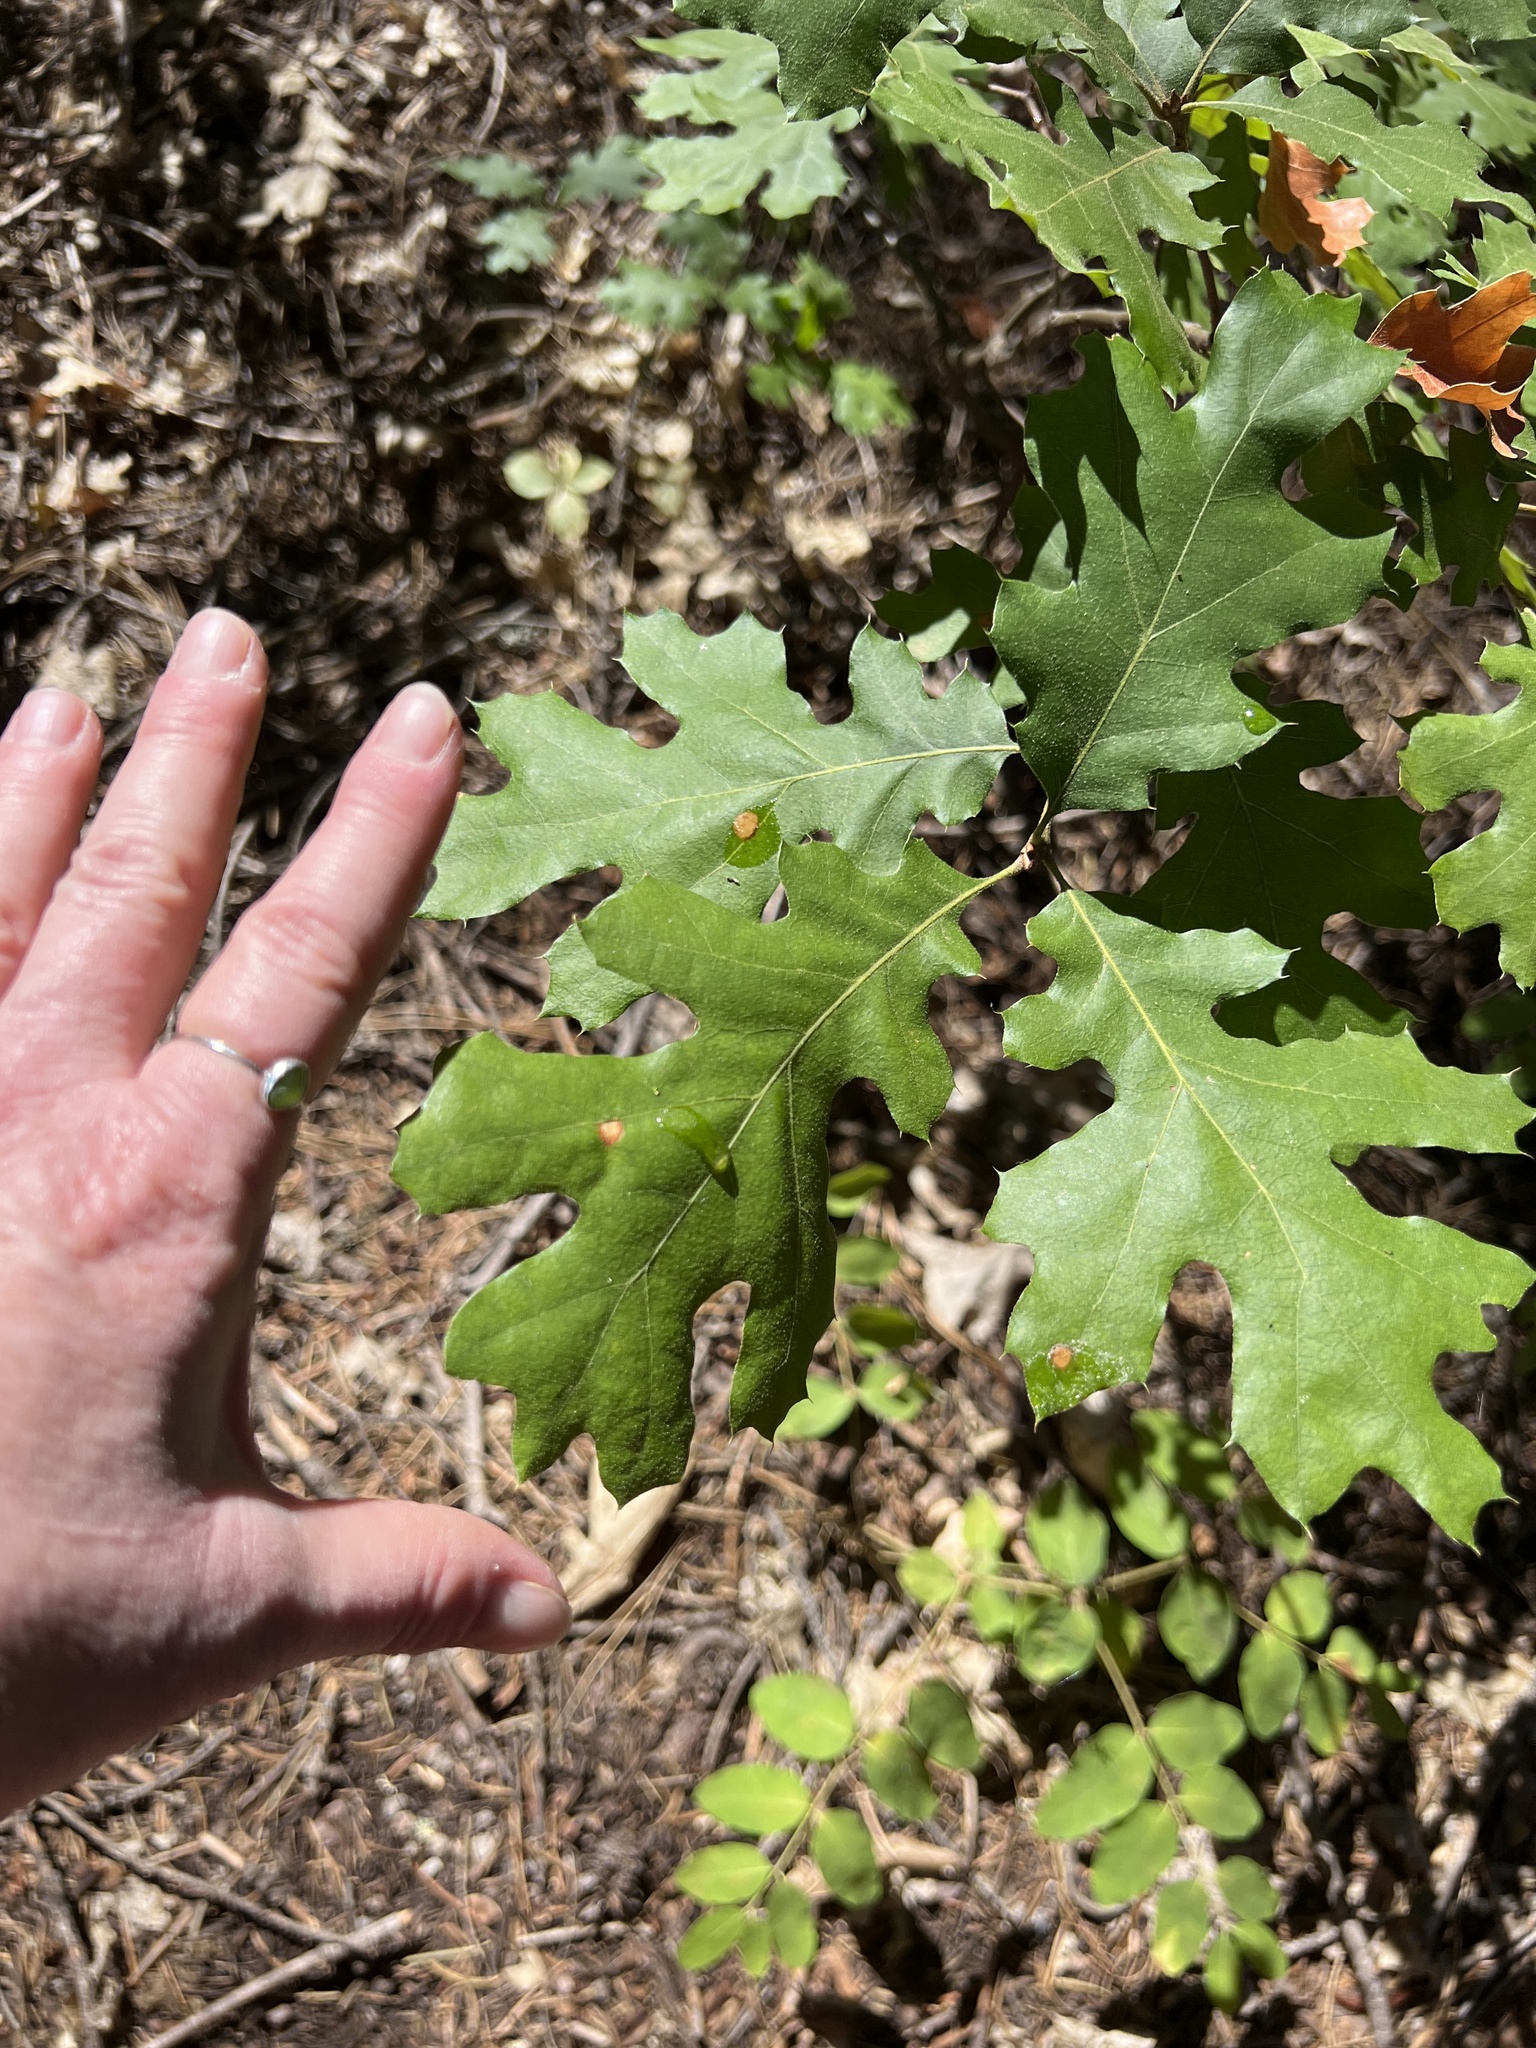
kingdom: Plantae
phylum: Tracheophyta
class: Magnoliopsida
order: Fagales
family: Fagaceae
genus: Quercus
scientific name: Quercus kelloggii
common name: California black oak
